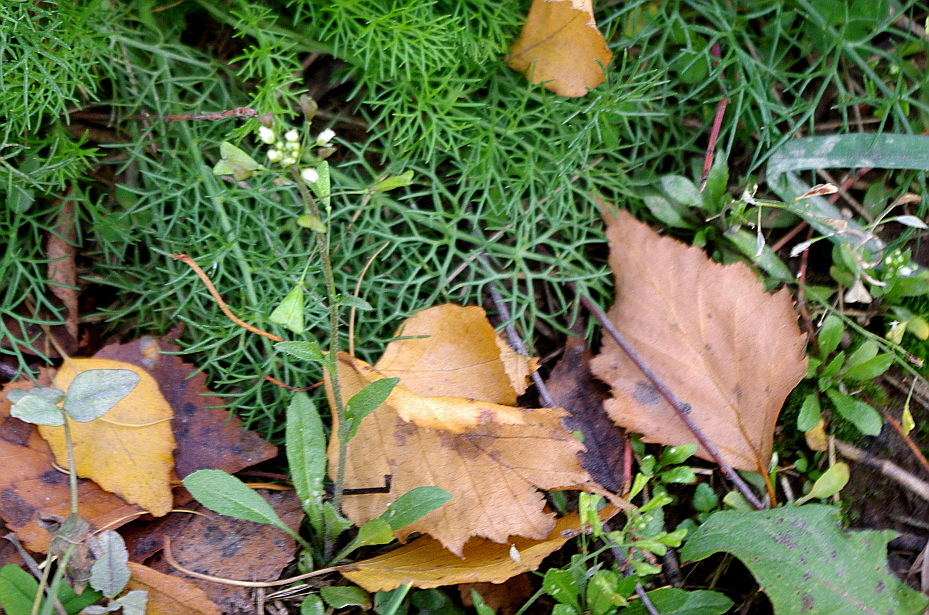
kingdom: Plantae
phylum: Tracheophyta
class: Magnoliopsida
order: Brassicales
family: Brassicaceae
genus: Capsella
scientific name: Capsella bursa-pastoris
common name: Shepherd's purse
